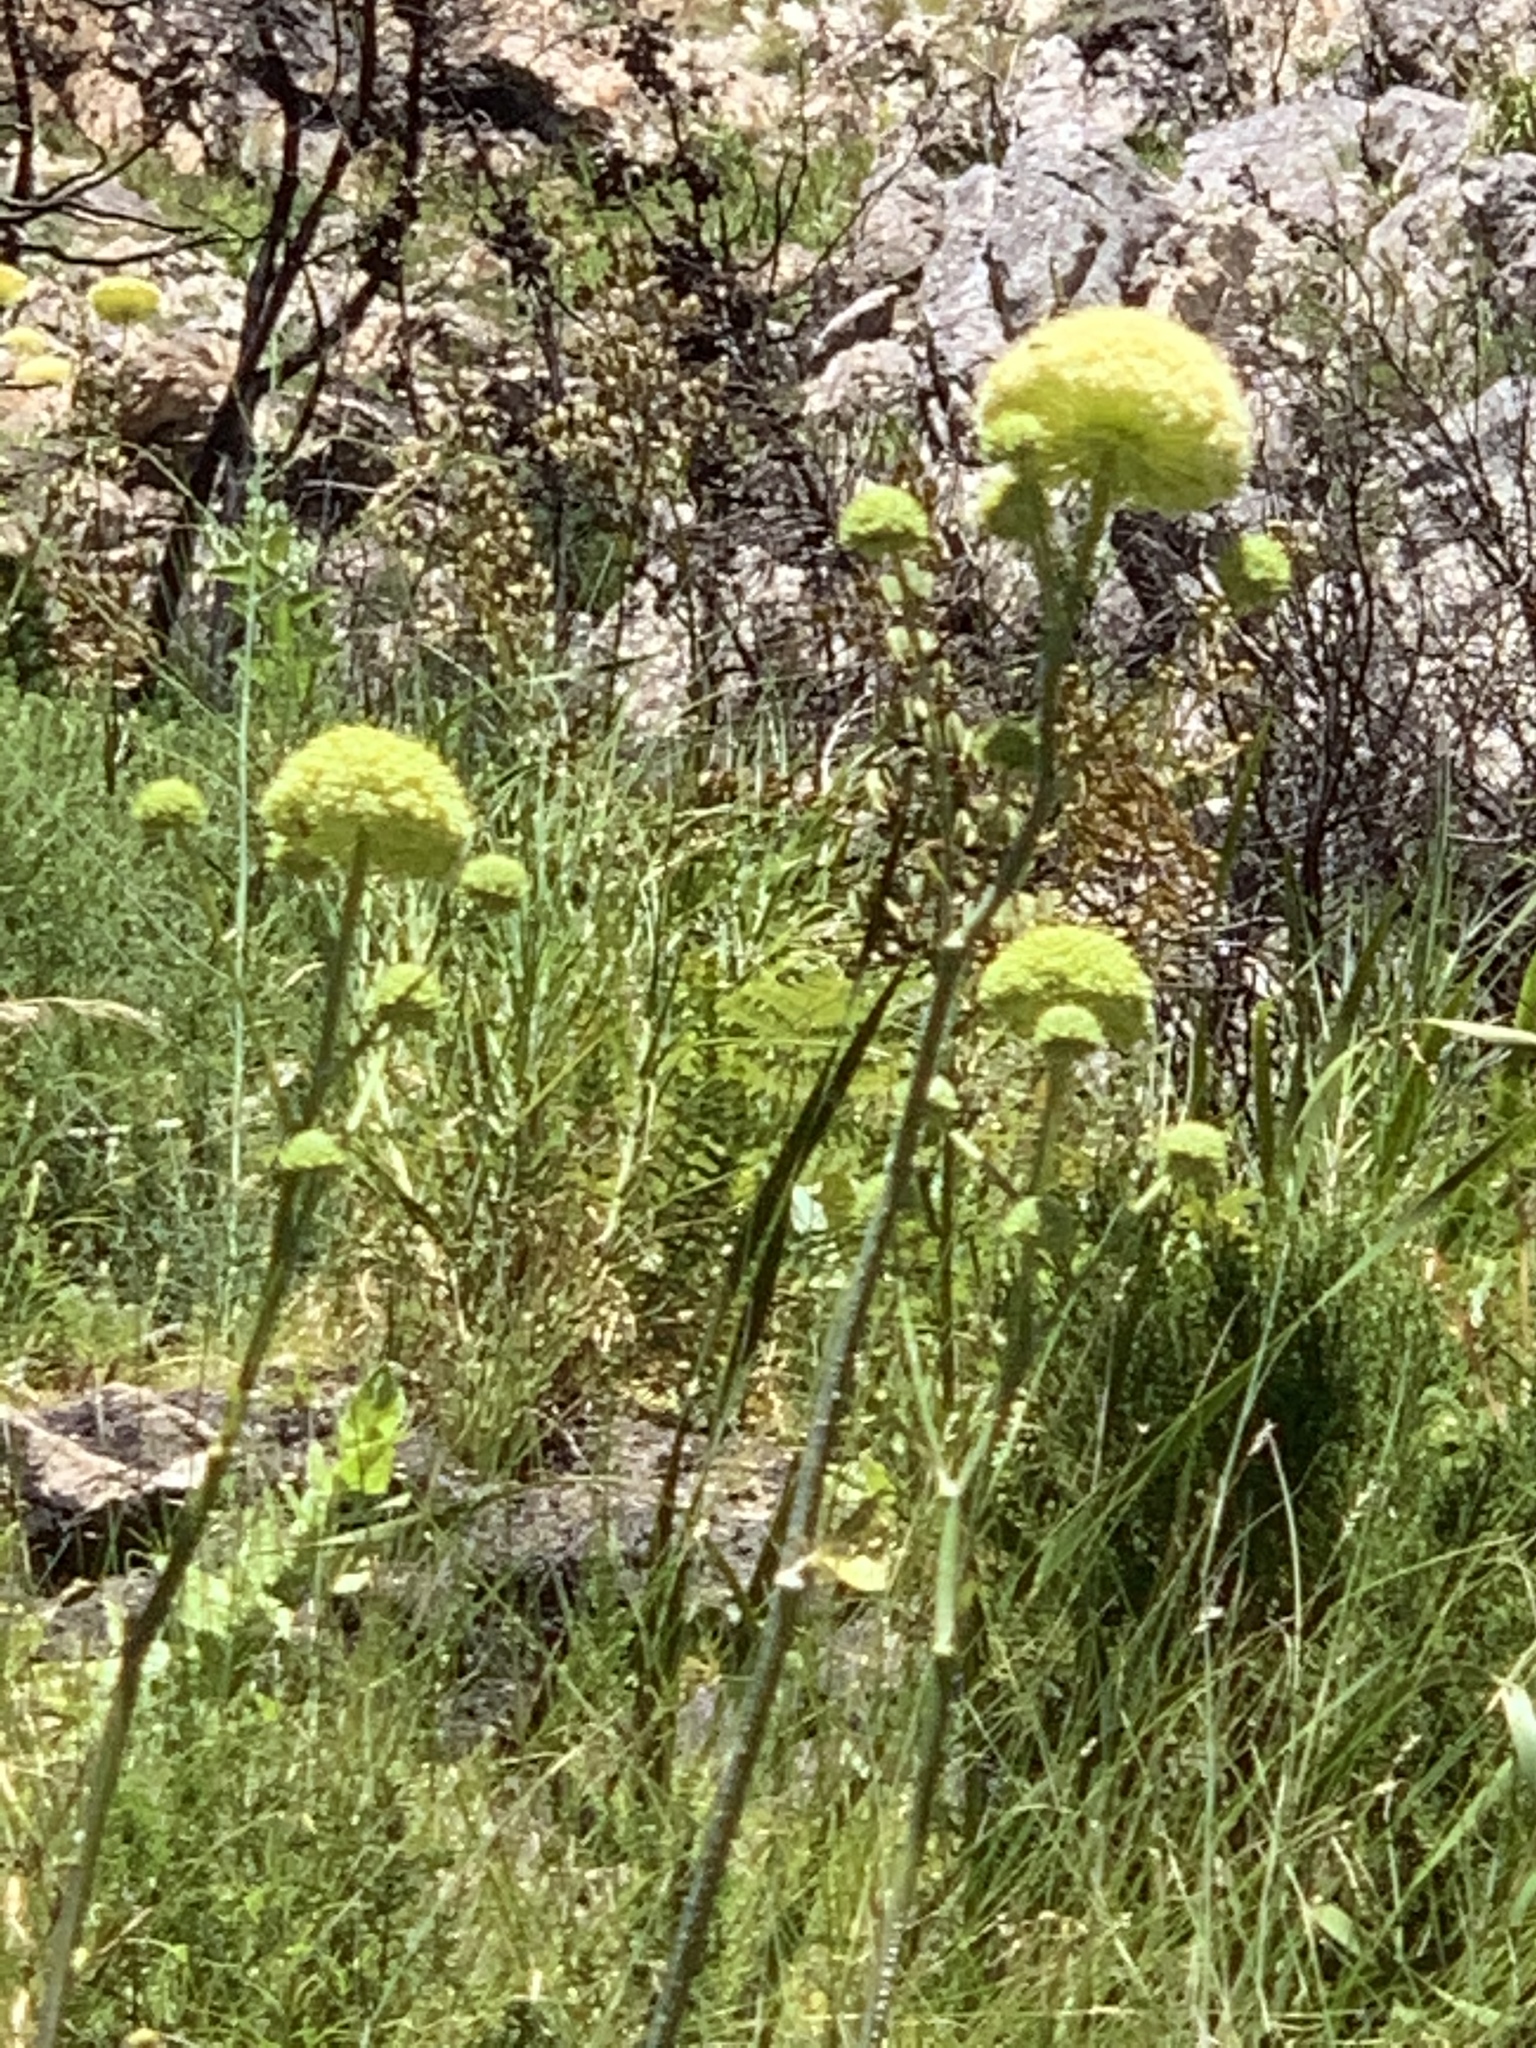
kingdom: Plantae
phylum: Tracheophyta
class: Magnoliopsida
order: Apiales
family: Apiaceae
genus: Hermas
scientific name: Hermas villosa
